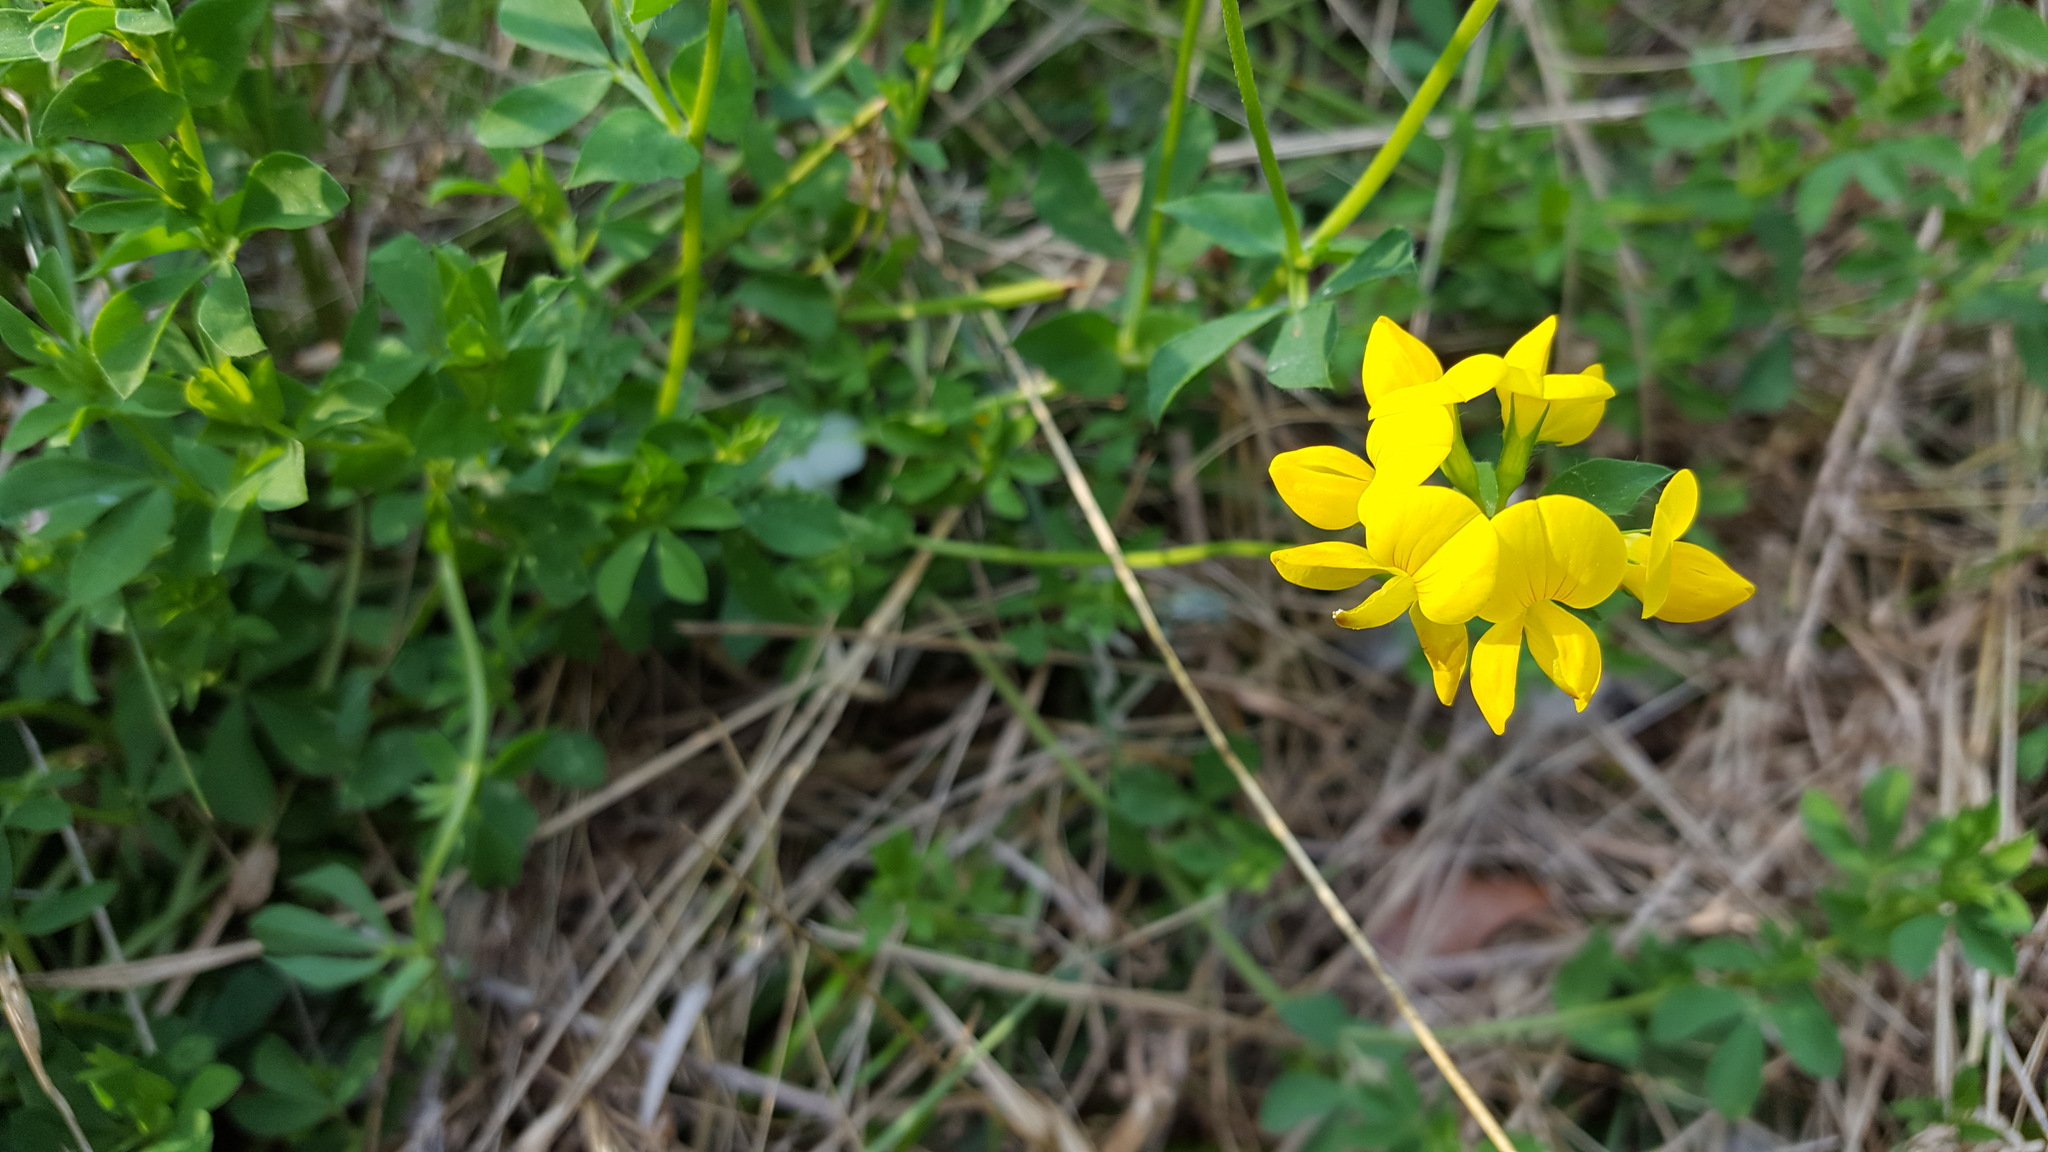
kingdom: Plantae
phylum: Tracheophyta
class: Magnoliopsida
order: Fabales
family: Fabaceae
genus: Lotus
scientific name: Lotus corniculatus
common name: Common bird's-foot-trefoil
